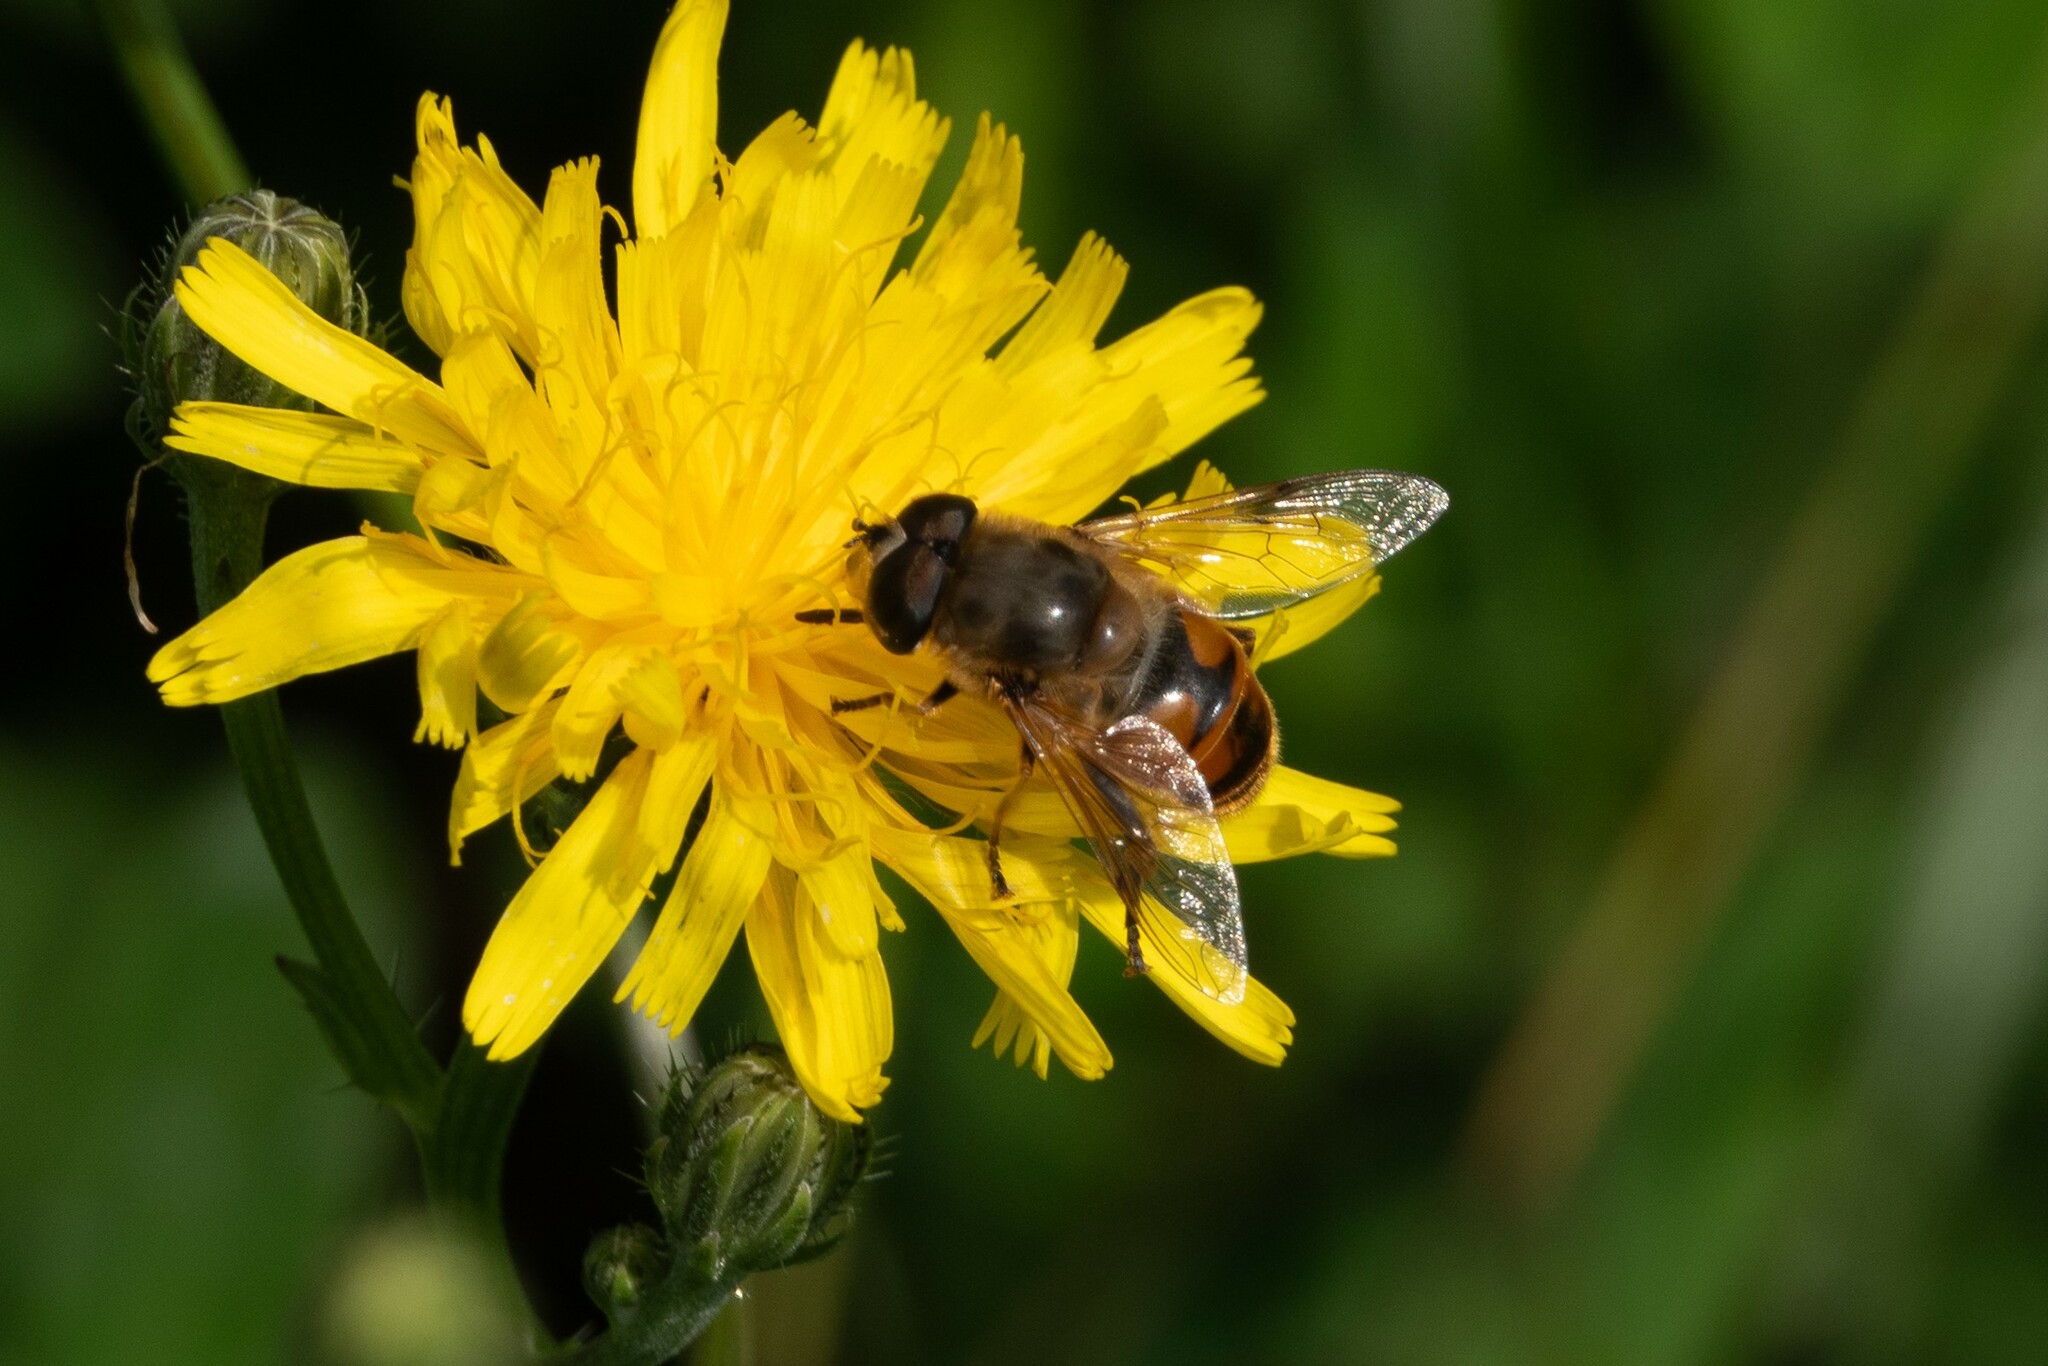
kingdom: Animalia
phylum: Arthropoda
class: Insecta
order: Diptera
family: Syrphidae
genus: Eristalis
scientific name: Eristalis tenax
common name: Drone fly
